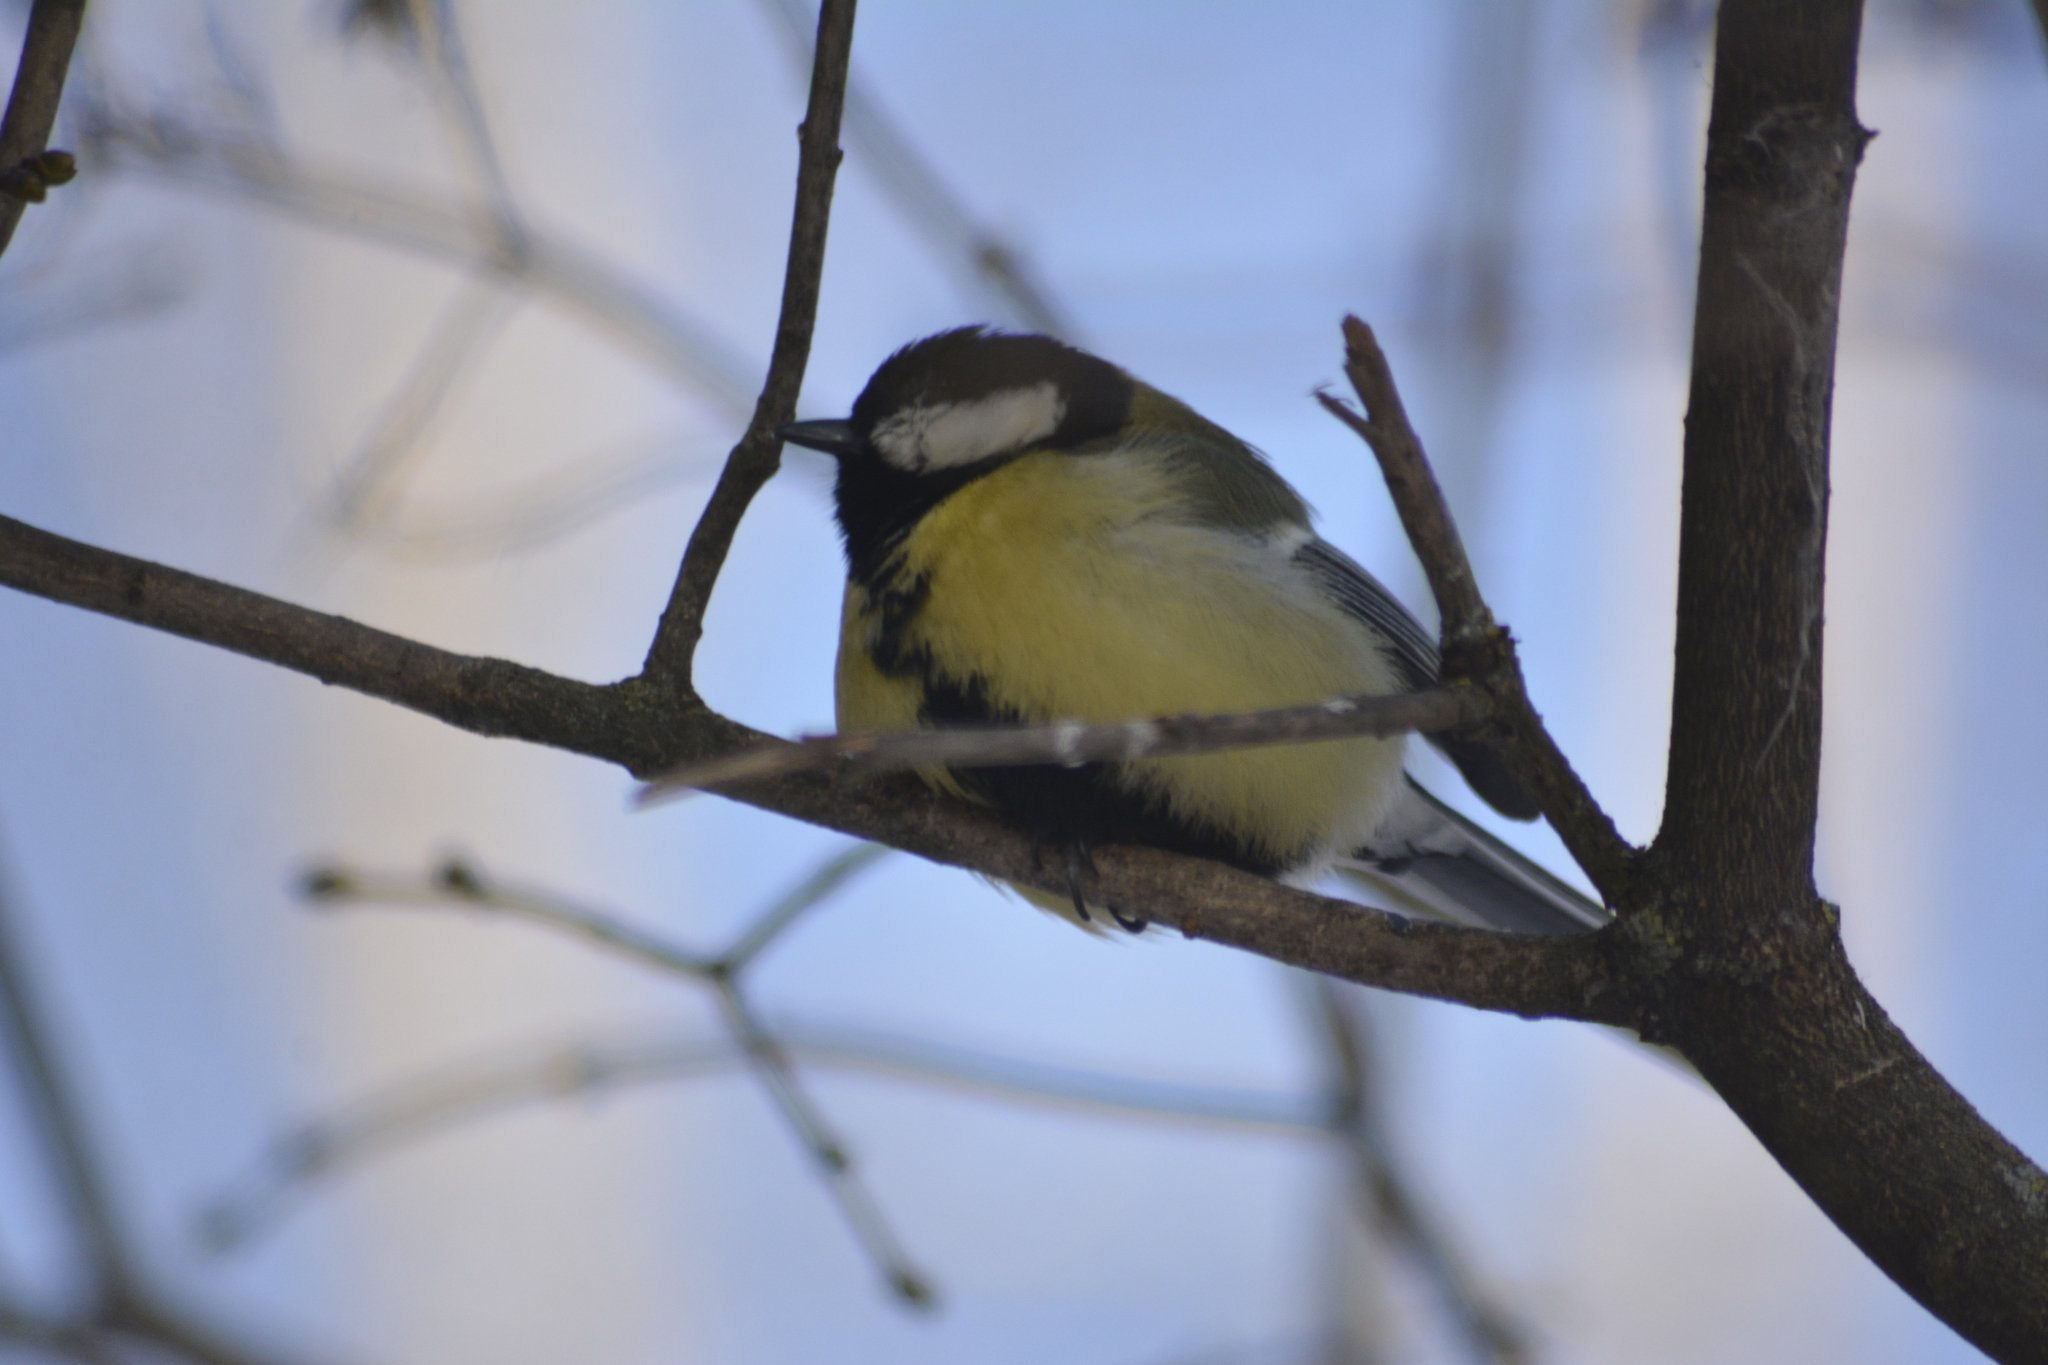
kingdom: Animalia
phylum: Chordata
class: Aves
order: Passeriformes
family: Paridae
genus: Parus
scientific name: Parus major
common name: Great tit
